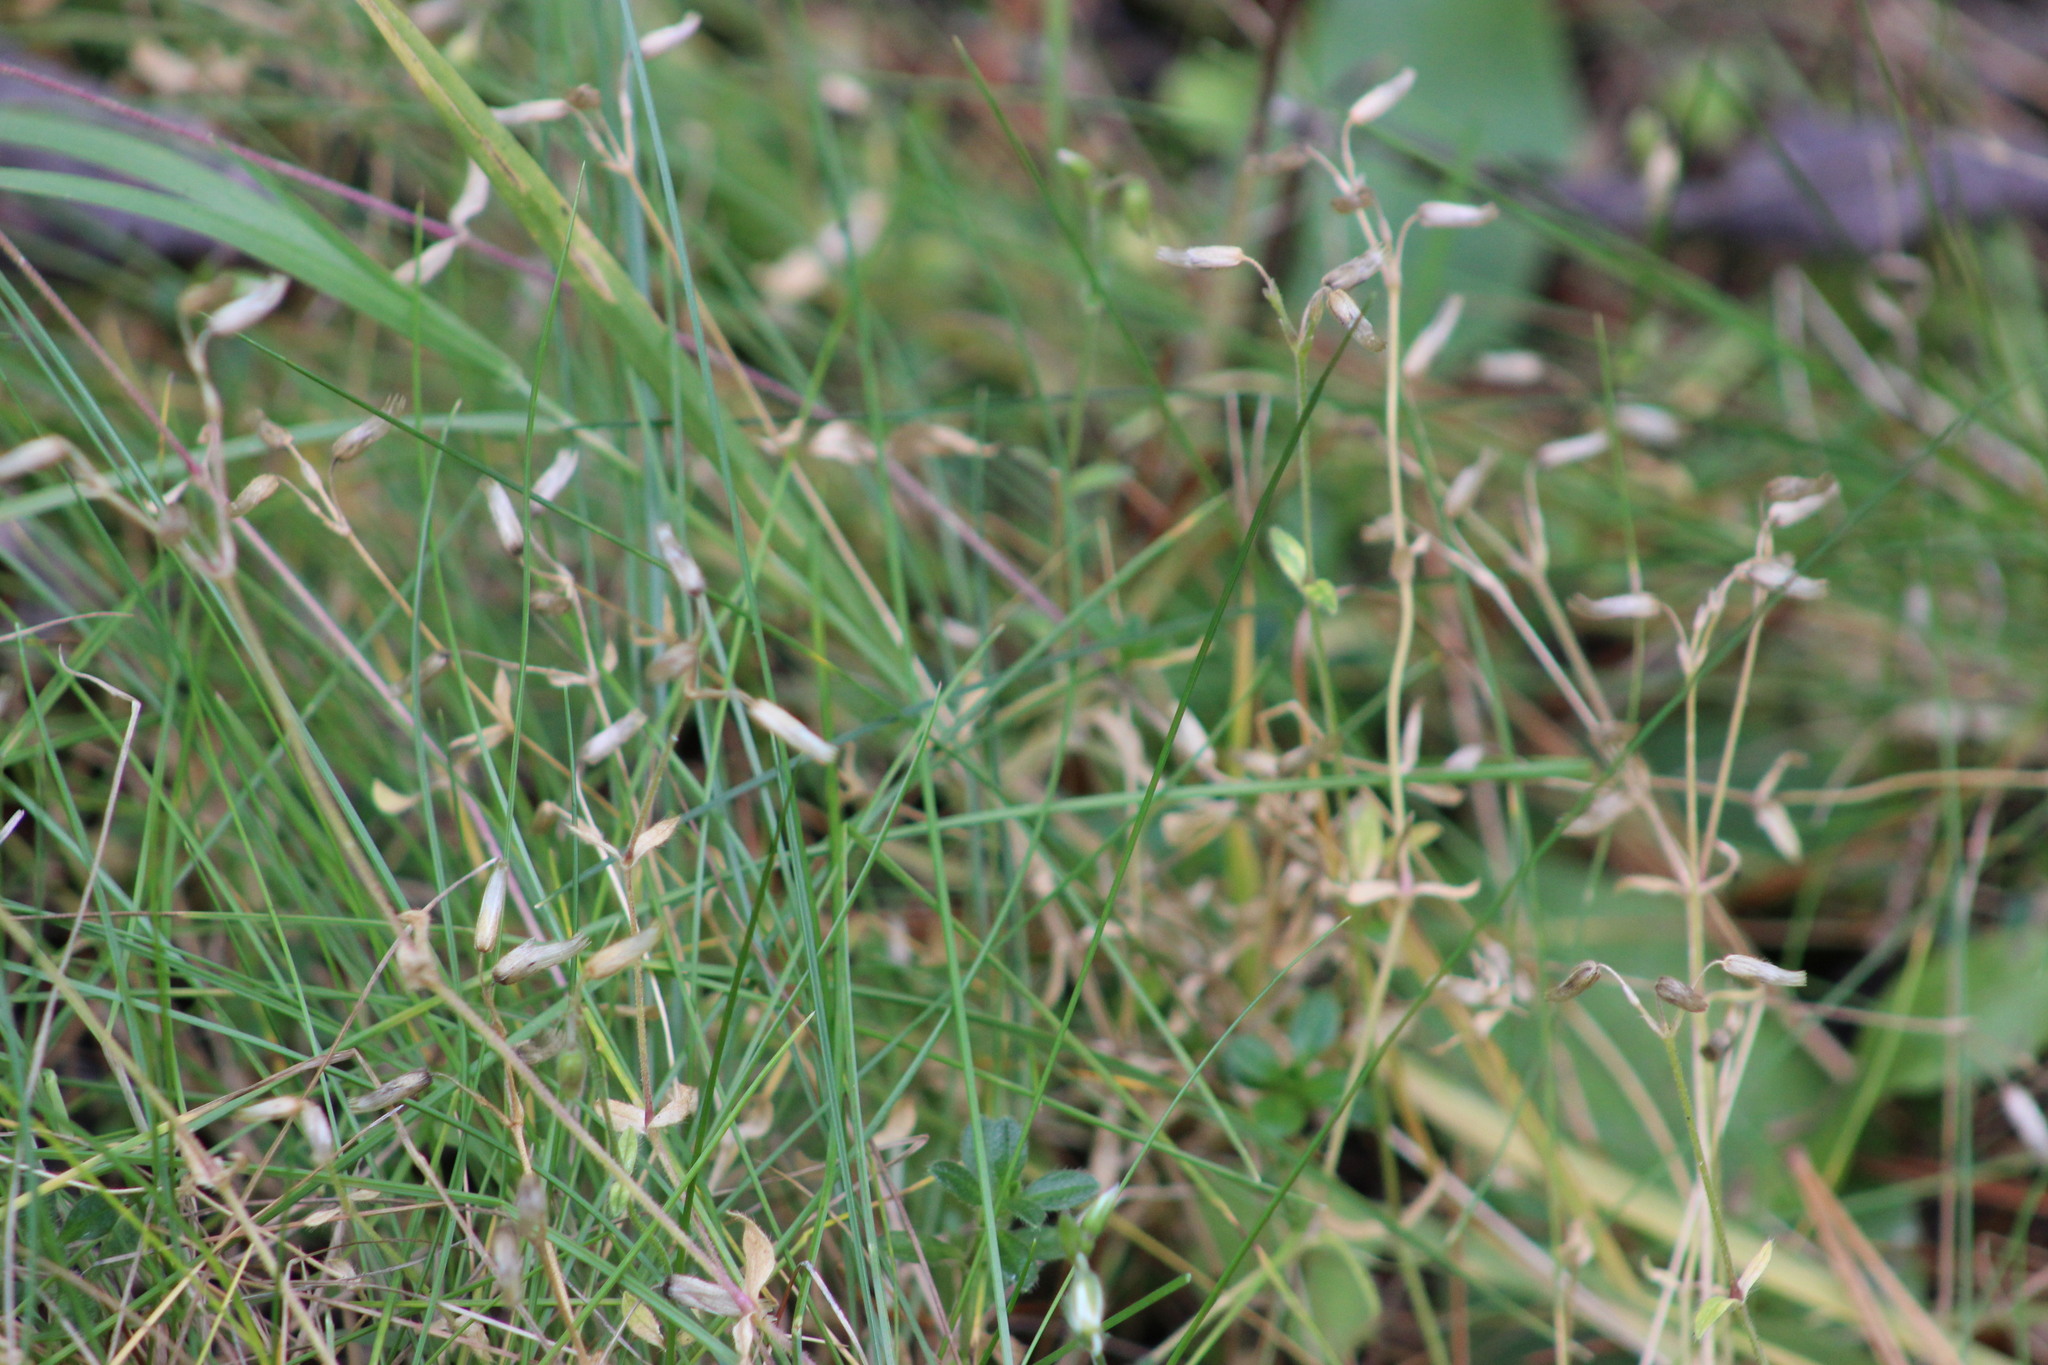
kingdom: Plantae
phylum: Tracheophyta
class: Magnoliopsida
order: Caryophyllales
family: Caryophyllaceae
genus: Cerastium
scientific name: Cerastium holosteoides
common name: Big chickweed
